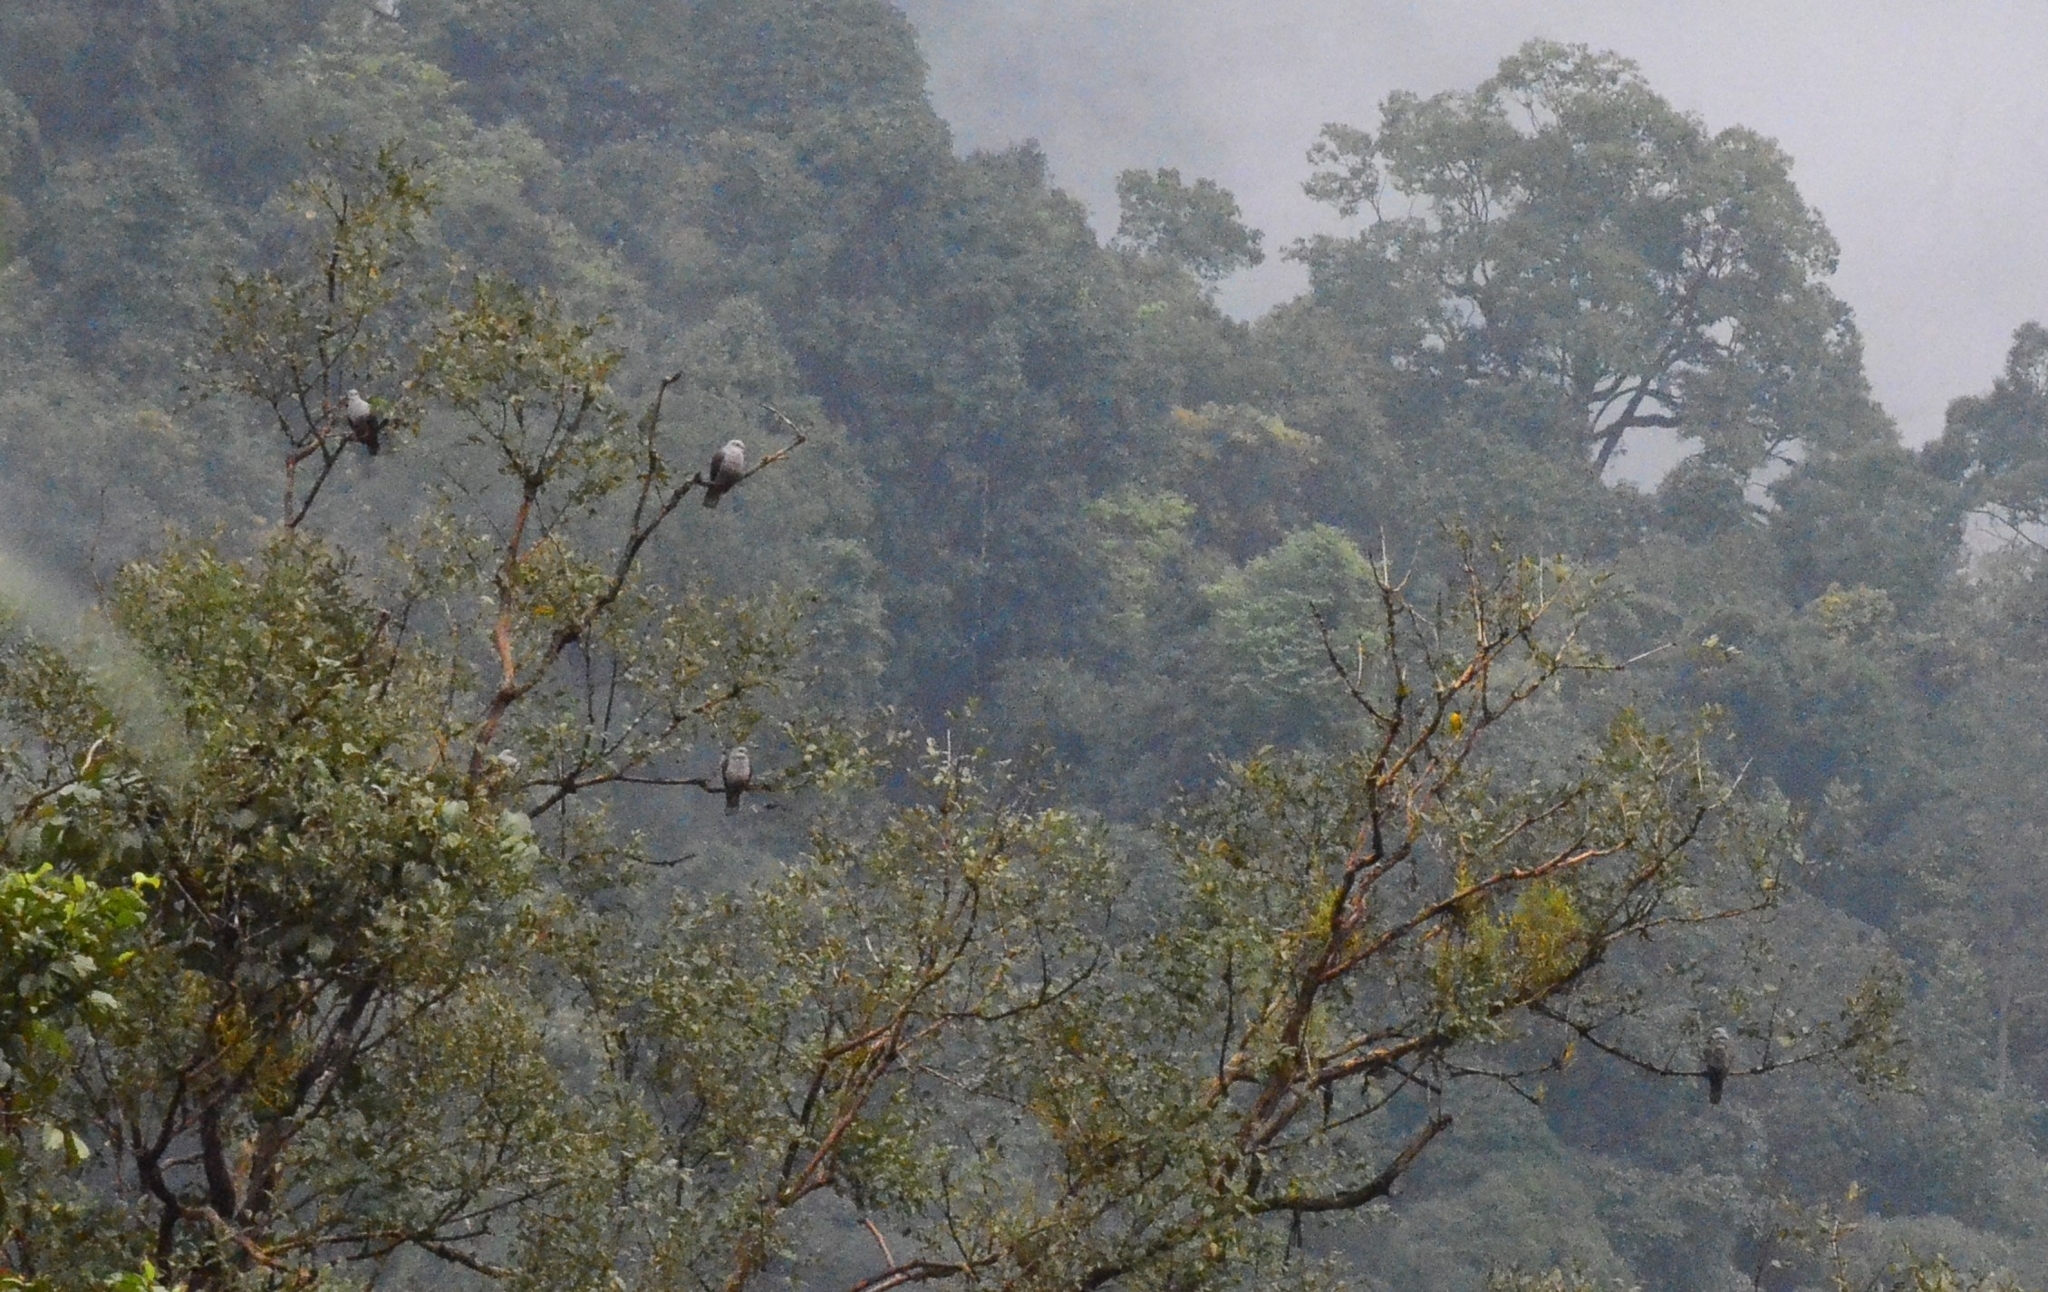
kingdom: Animalia
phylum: Chordata
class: Aves
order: Columbiformes
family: Columbidae
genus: Ducula
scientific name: Ducula badia
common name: Mountain imperial pigeon
